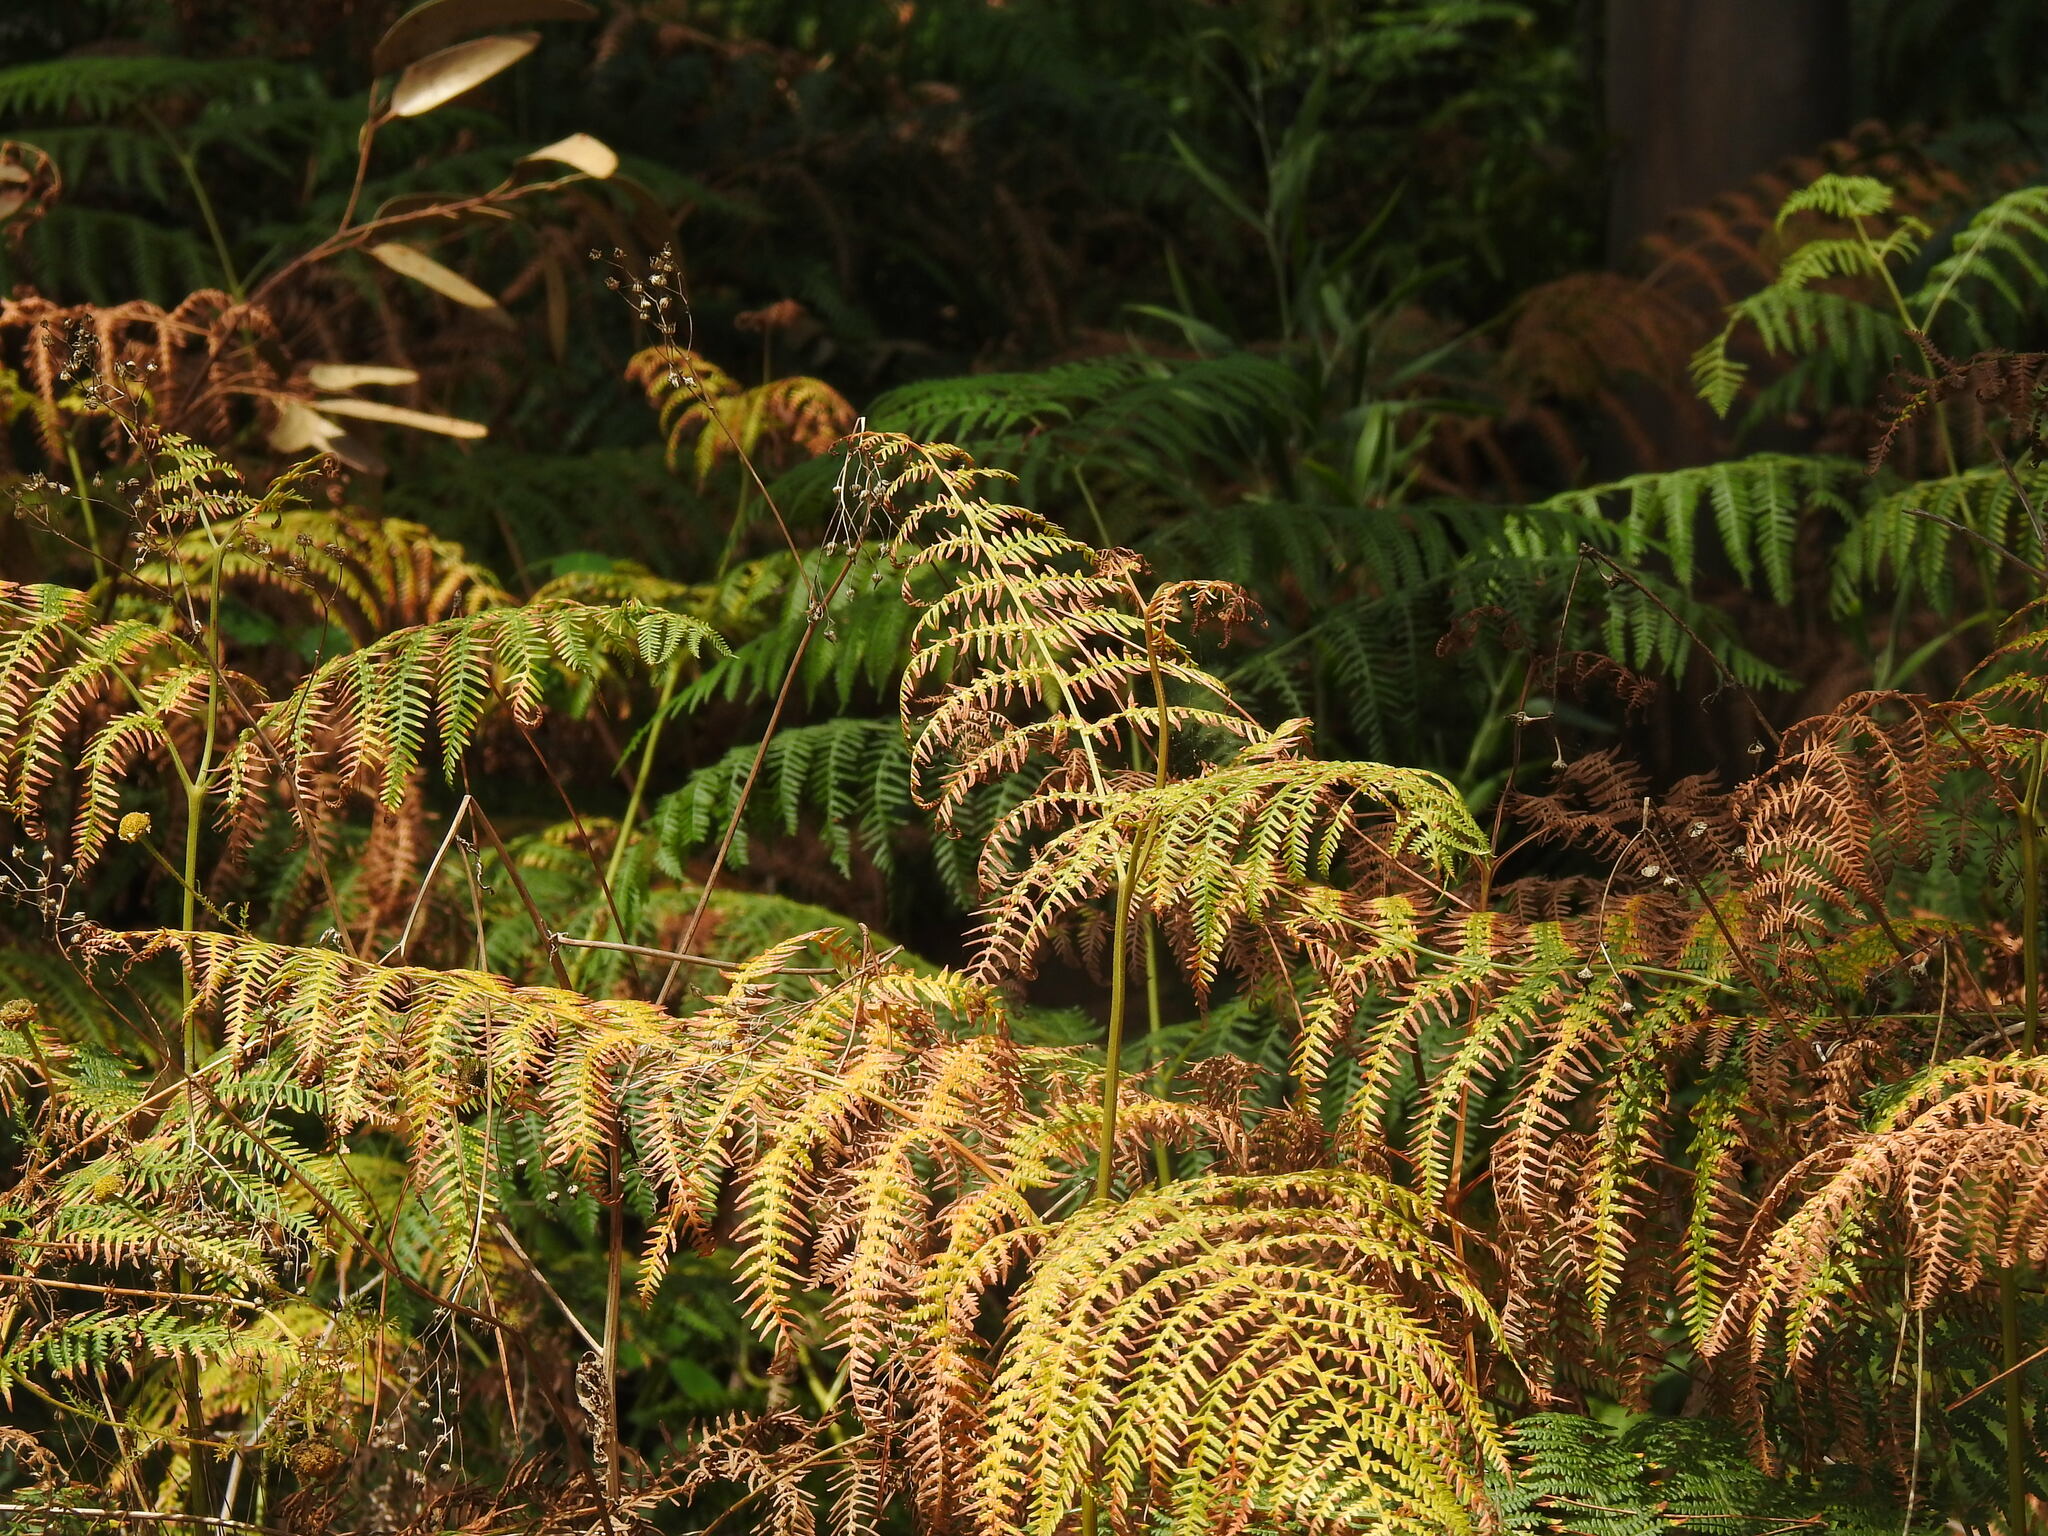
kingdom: Plantae
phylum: Tracheophyta
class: Polypodiopsida
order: Polypodiales
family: Dennstaedtiaceae
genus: Pteridium
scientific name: Pteridium aquilinum
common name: Bracken
